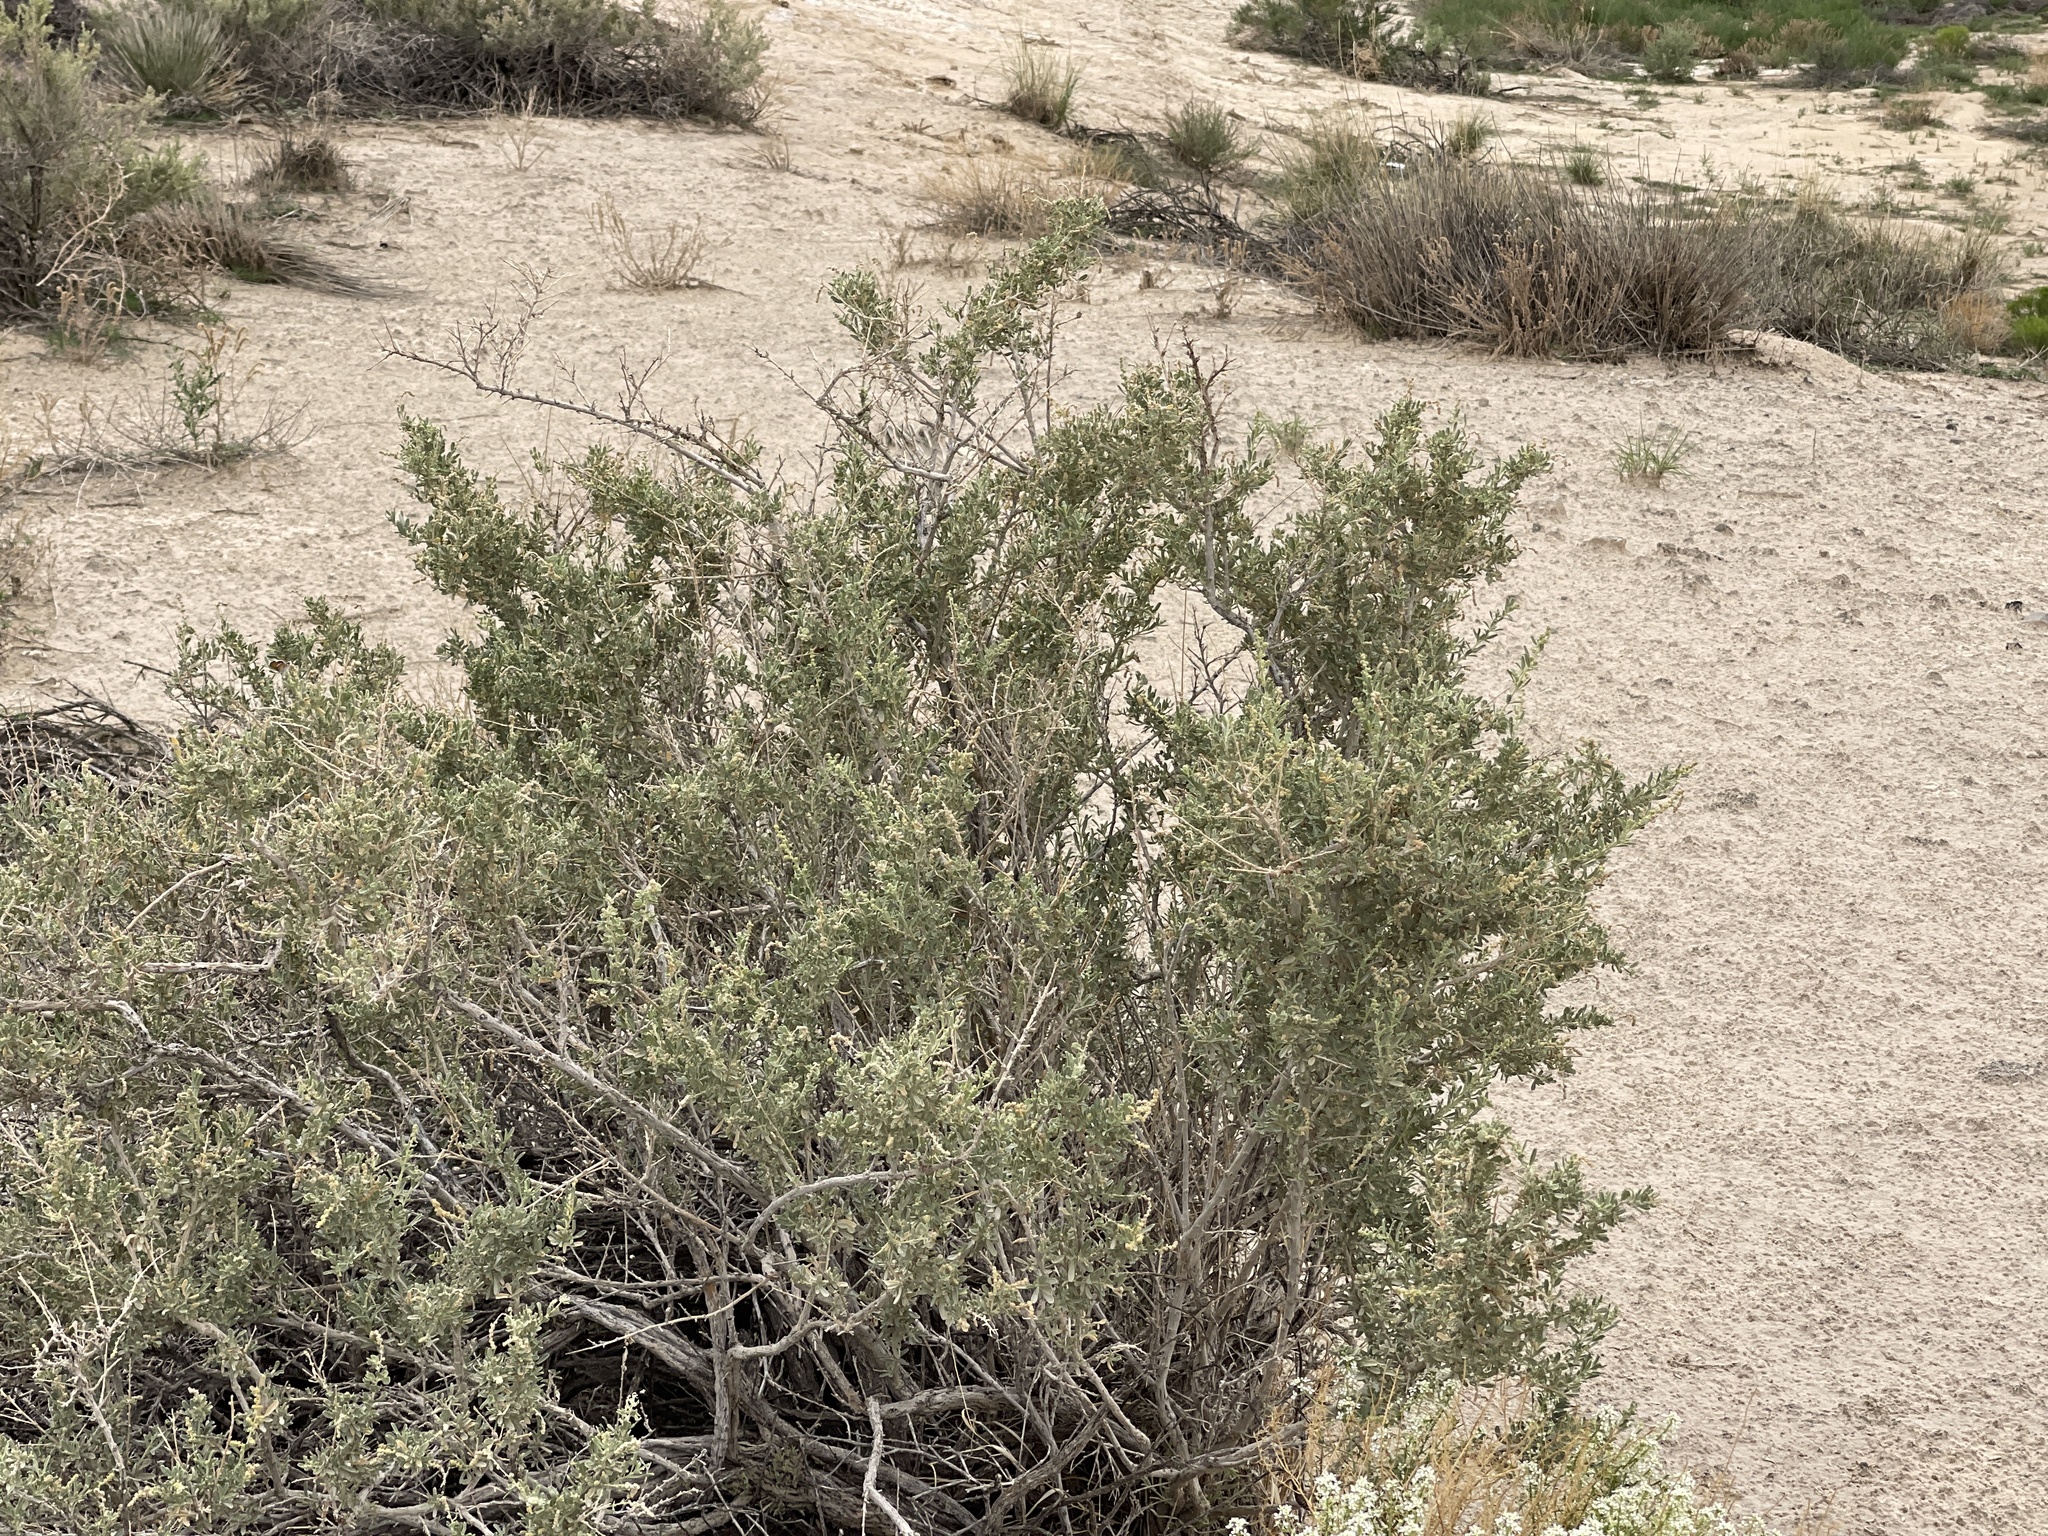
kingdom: Plantae
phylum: Tracheophyta
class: Magnoliopsida
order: Caryophyllales
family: Amaranthaceae
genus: Atriplex
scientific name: Atriplex canescens
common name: Four-wing saltbush
